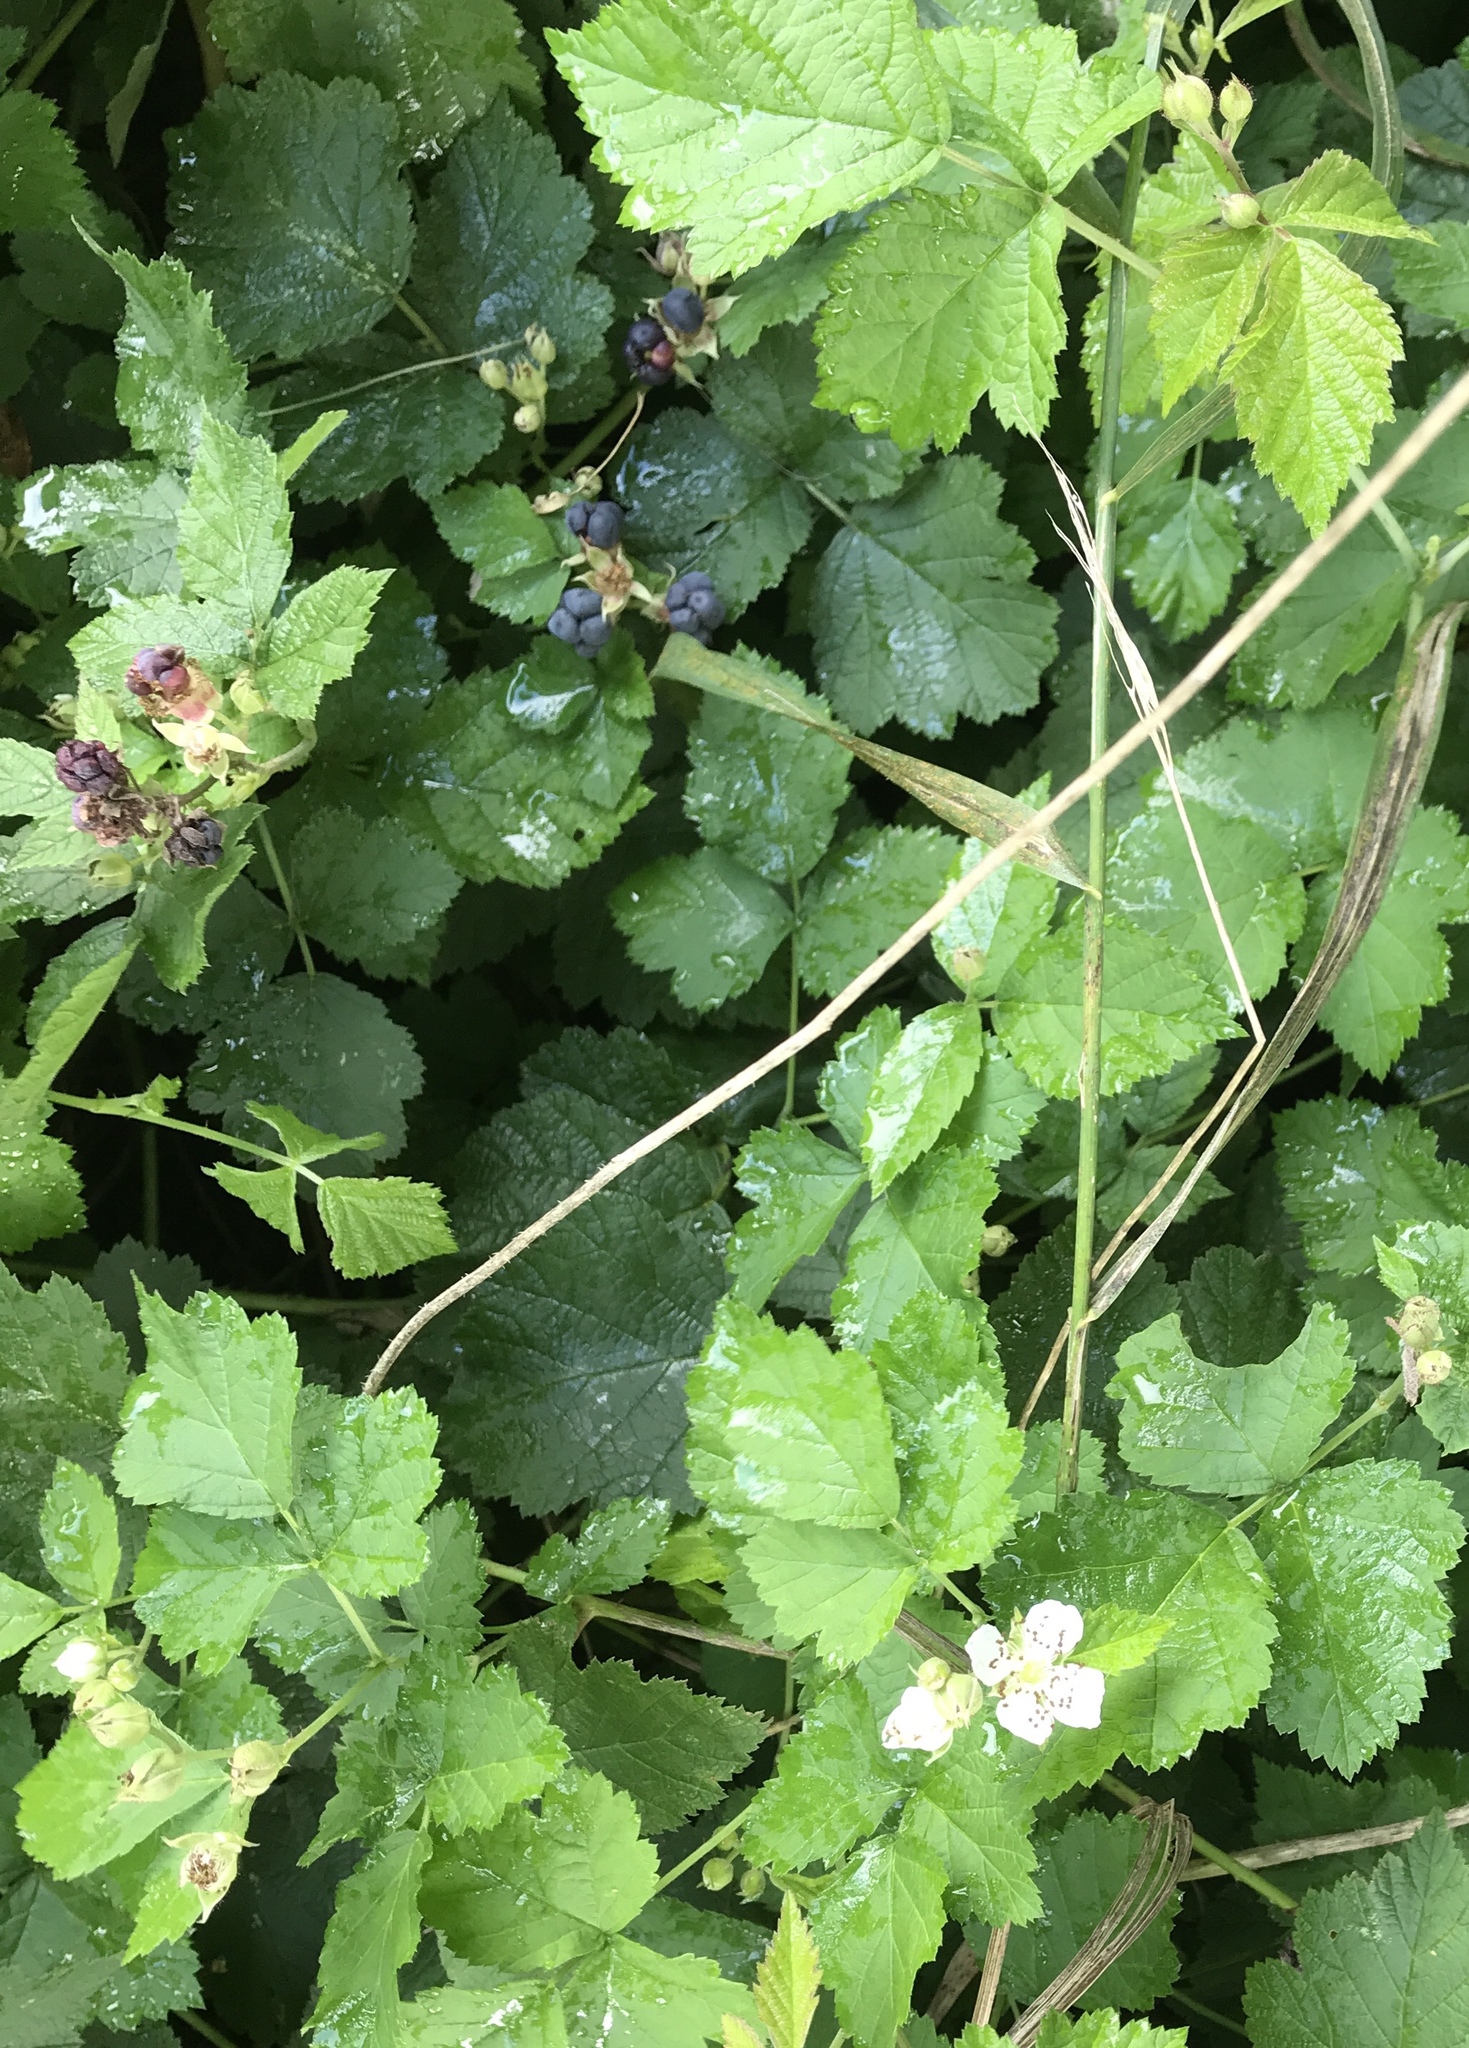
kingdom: Plantae
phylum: Tracheophyta
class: Magnoliopsida
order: Rosales
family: Rosaceae
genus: Rubus
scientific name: Rubus caesius
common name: Dewberry
